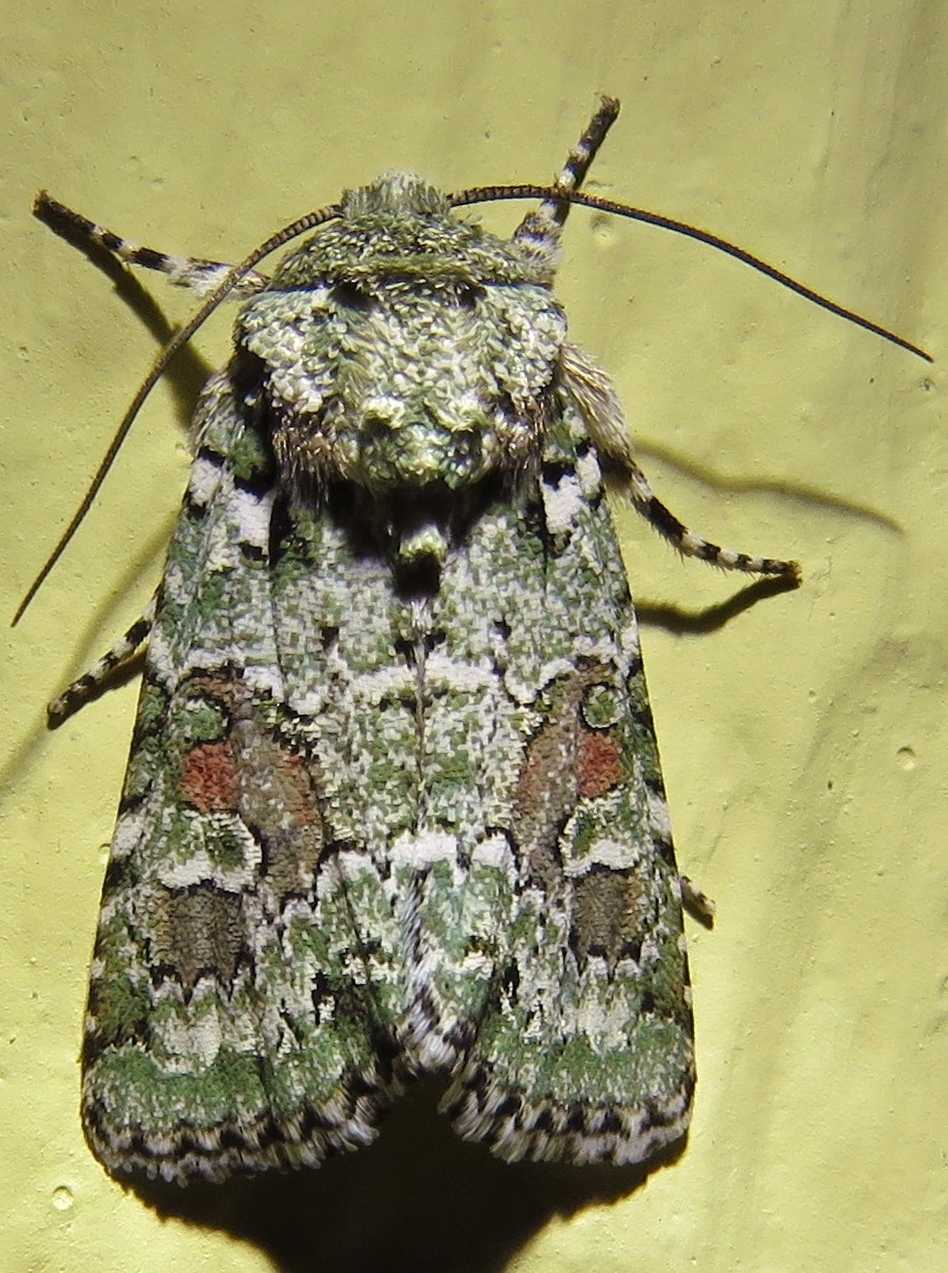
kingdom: Animalia
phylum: Arthropoda
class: Insecta
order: Lepidoptera
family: Noctuidae
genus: Lacinipolia
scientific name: Lacinipolia laudabilis
